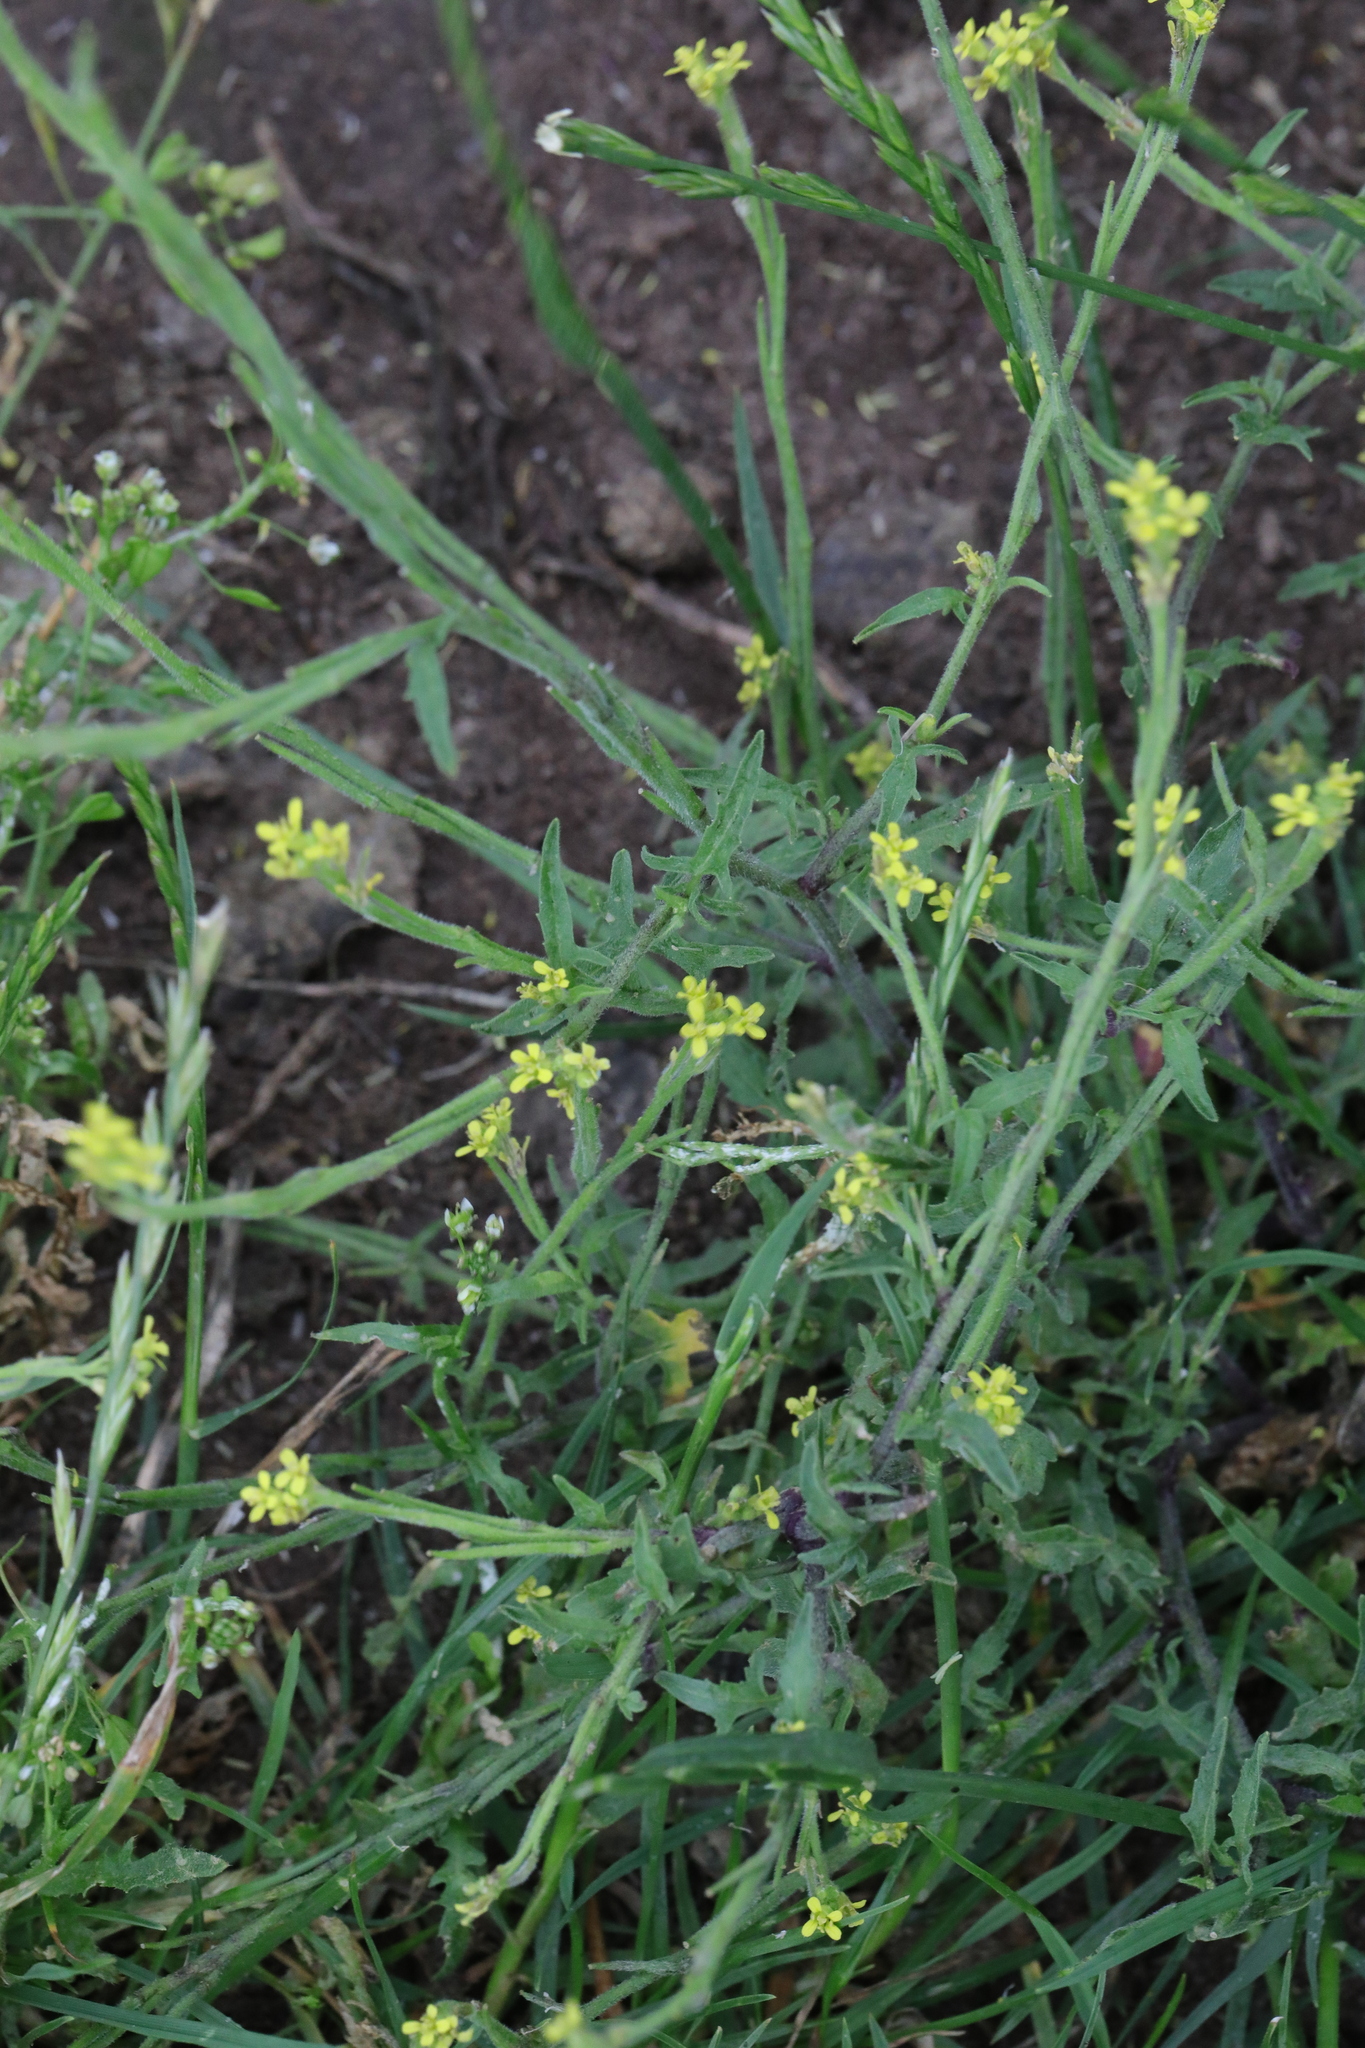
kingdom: Plantae
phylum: Tracheophyta
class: Magnoliopsida
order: Brassicales
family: Brassicaceae
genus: Sisymbrium
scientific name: Sisymbrium officinale
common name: Hedge mustard
